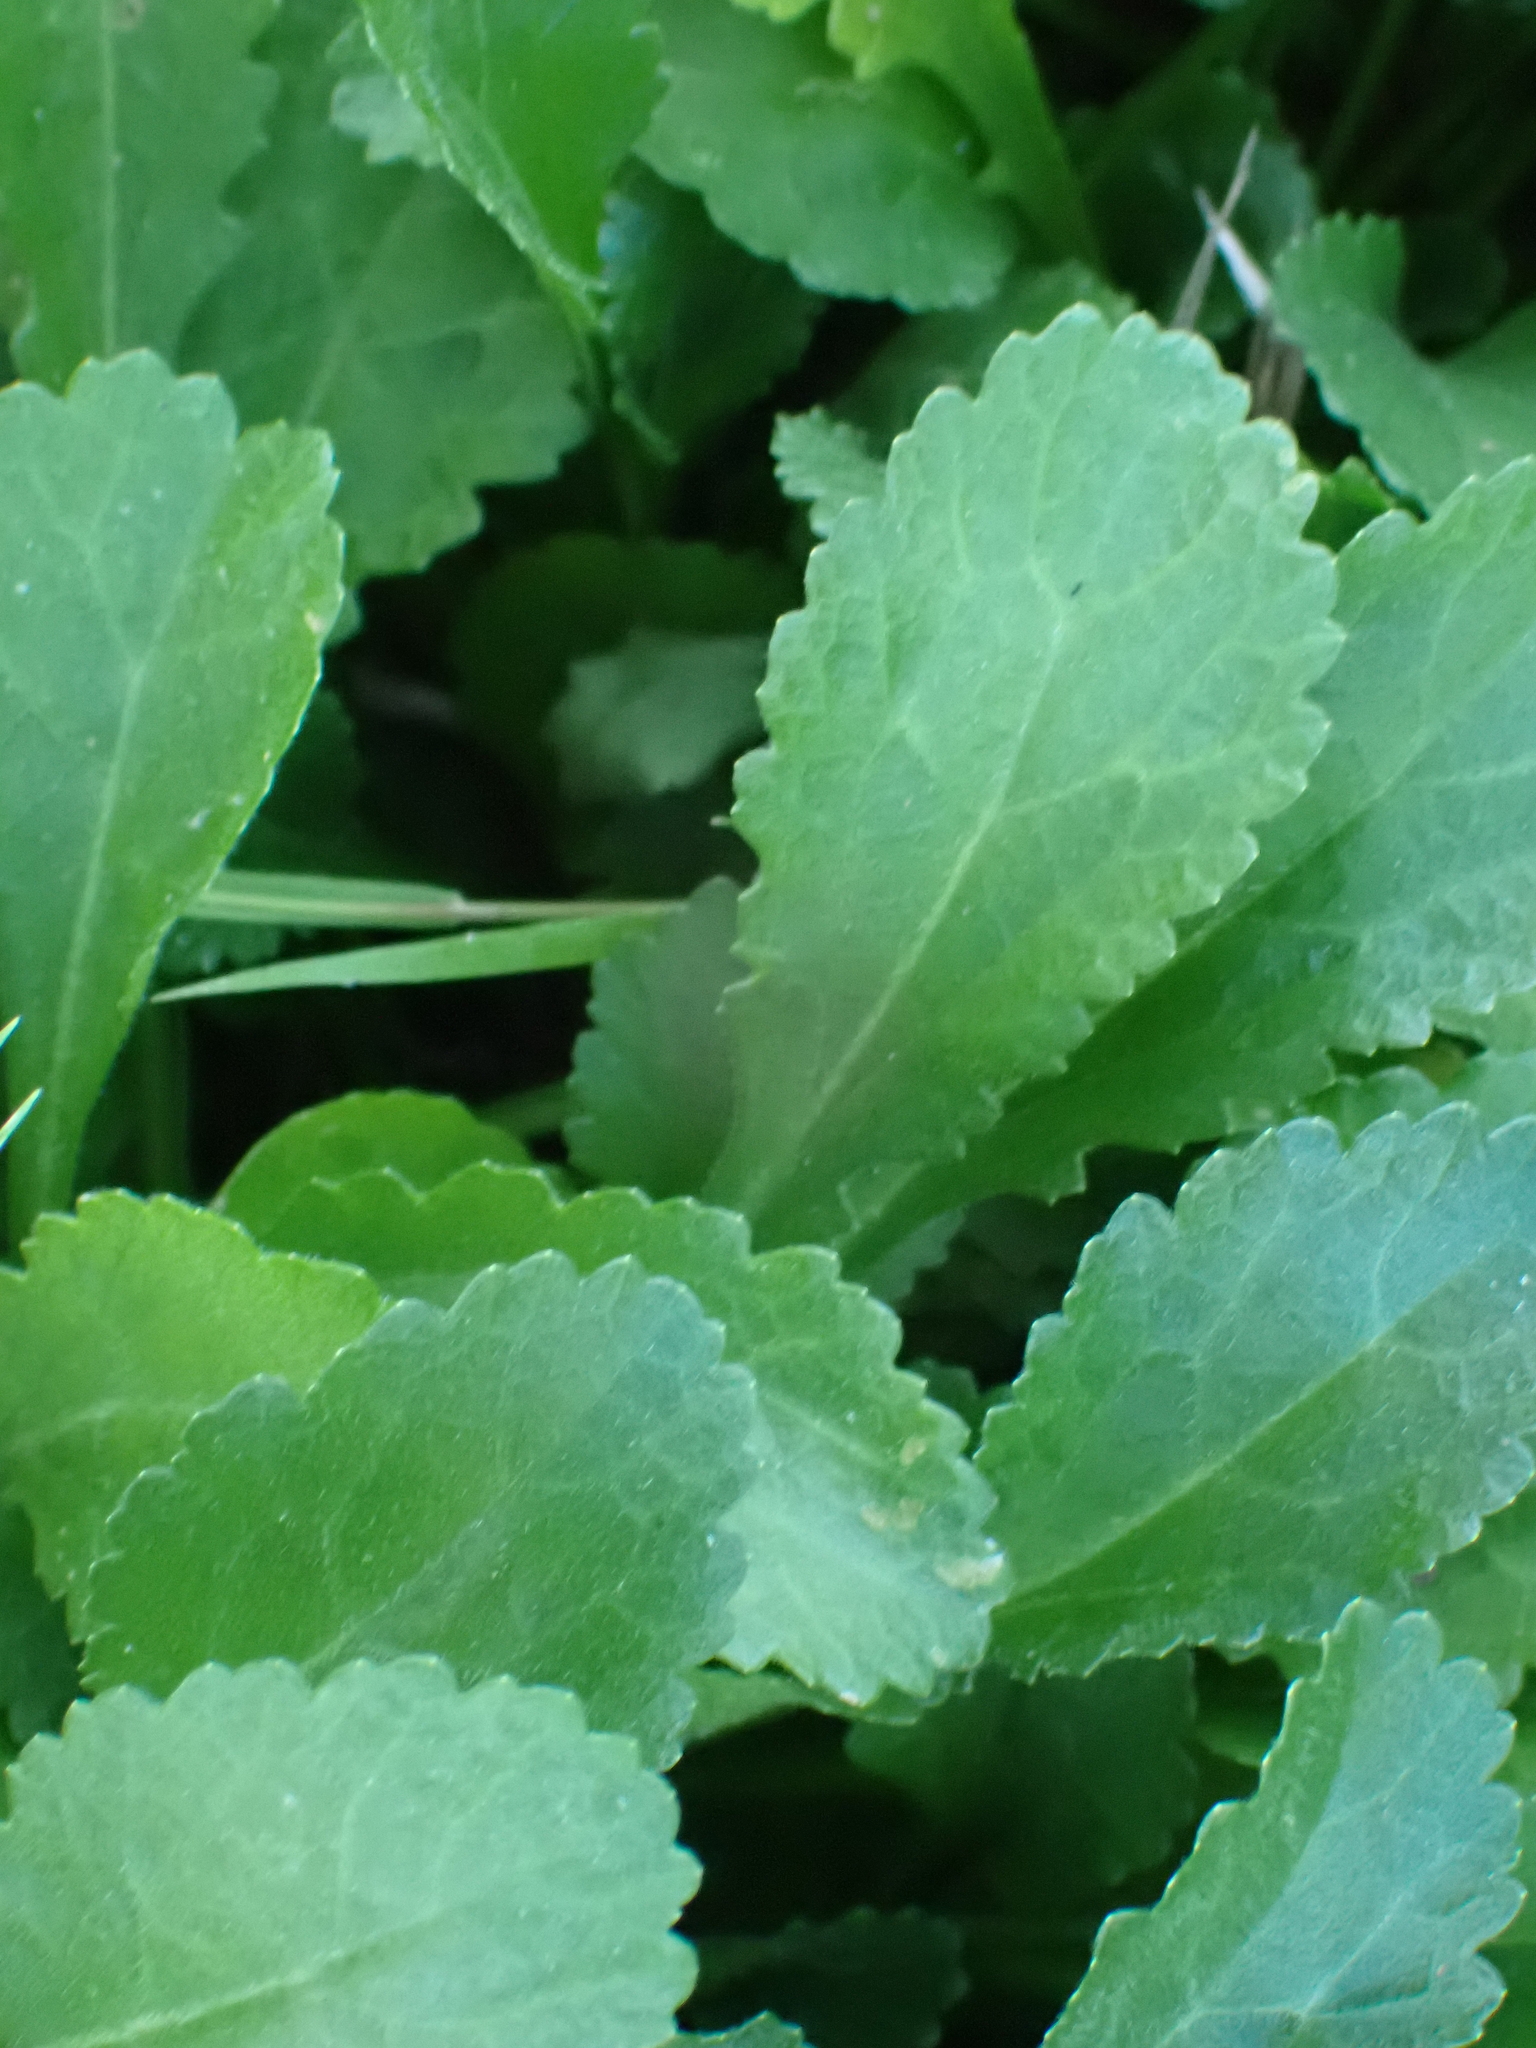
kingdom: Plantae
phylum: Tracheophyta
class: Magnoliopsida
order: Asterales
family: Asteraceae
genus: Leucanthemum
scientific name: Leucanthemum vulgare
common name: Oxeye daisy
